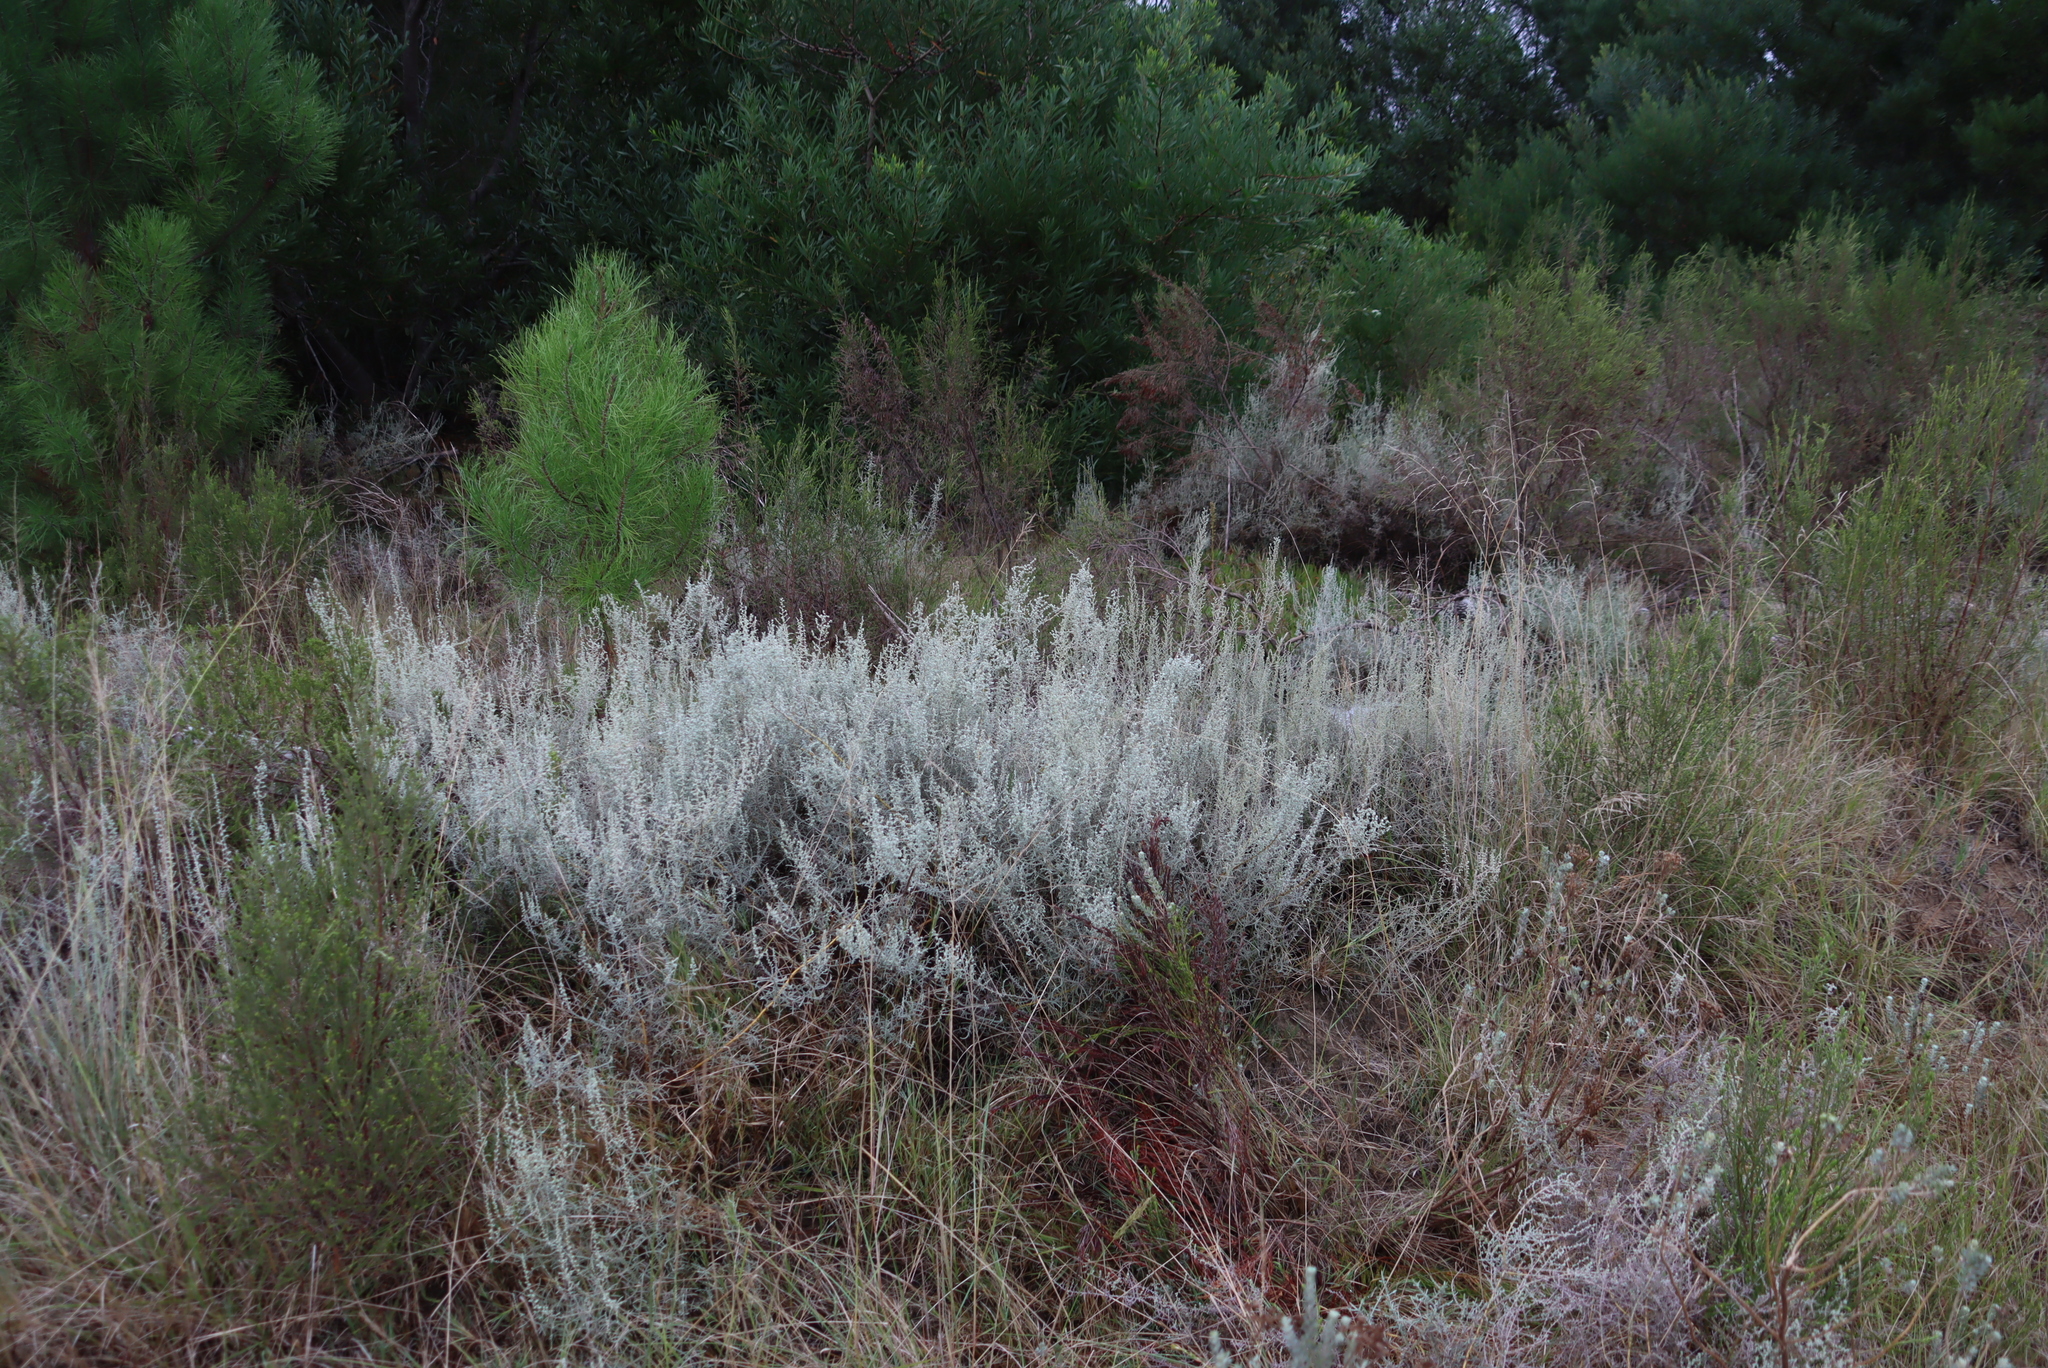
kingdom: Plantae
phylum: Tracheophyta
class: Magnoliopsida
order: Asterales
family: Asteraceae
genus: Seriphium
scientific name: Seriphium plumosum
